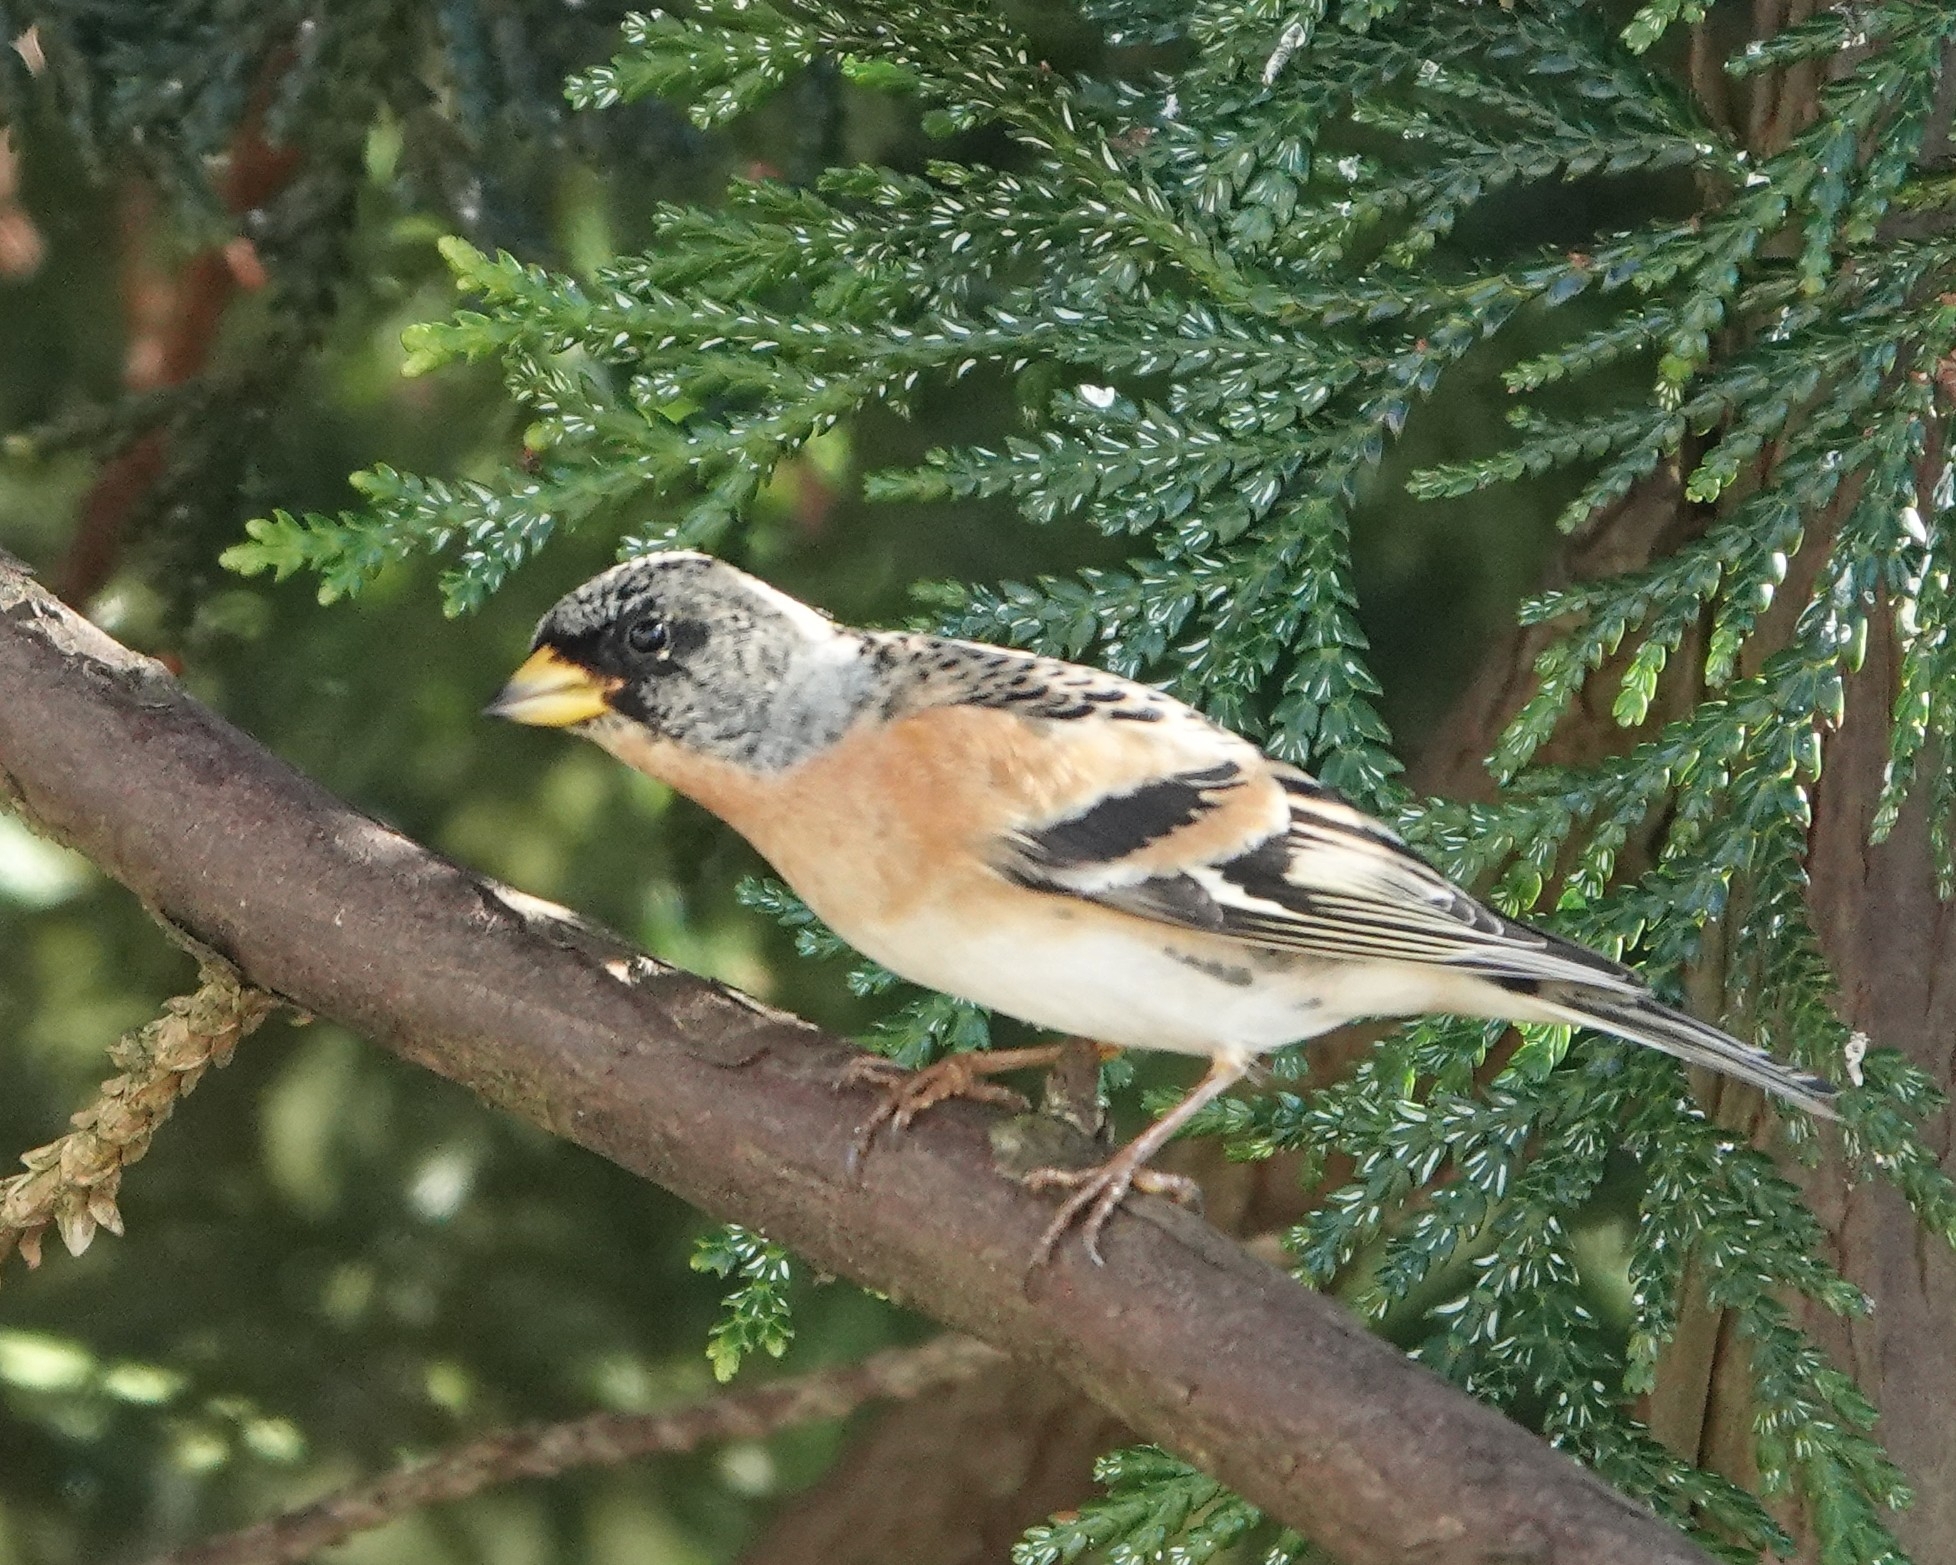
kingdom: Animalia
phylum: Chordata
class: Aves
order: Passeriformes
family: Fringillidae
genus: Fringilla
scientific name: Fringilla montifringilla
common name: Brambling
